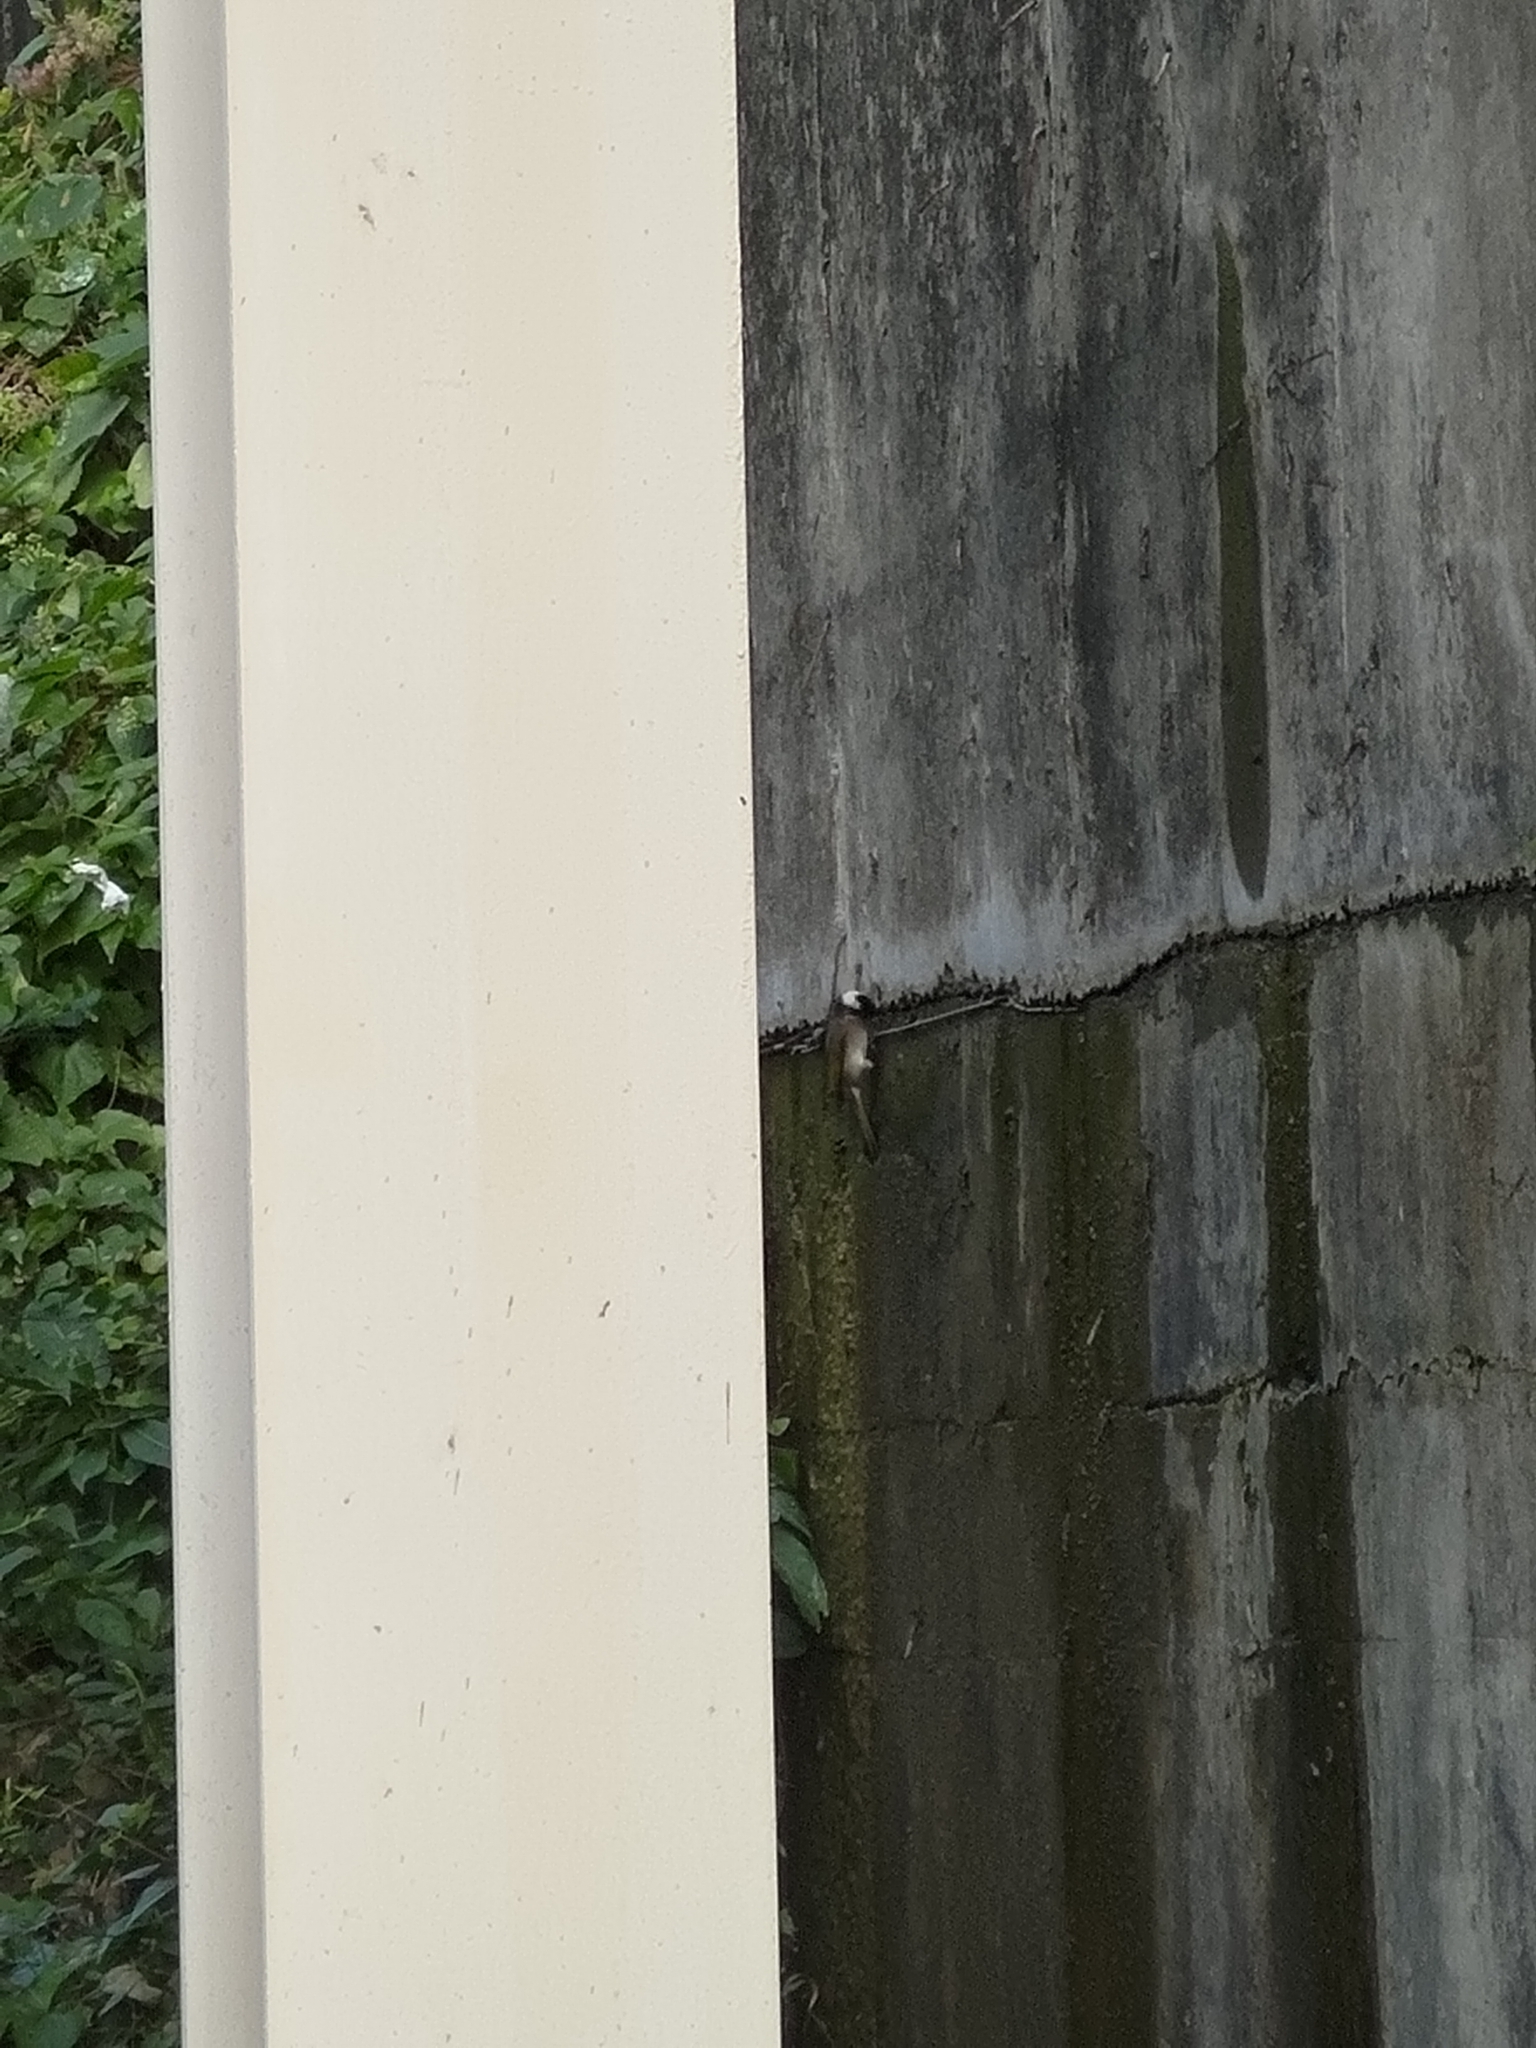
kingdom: Animalia
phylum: Chordata
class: Aves
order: Passeriformes
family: Pycnonotidae
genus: Pycnonotus
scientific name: Pycnonotus sinensis
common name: Light-vented bulbul
